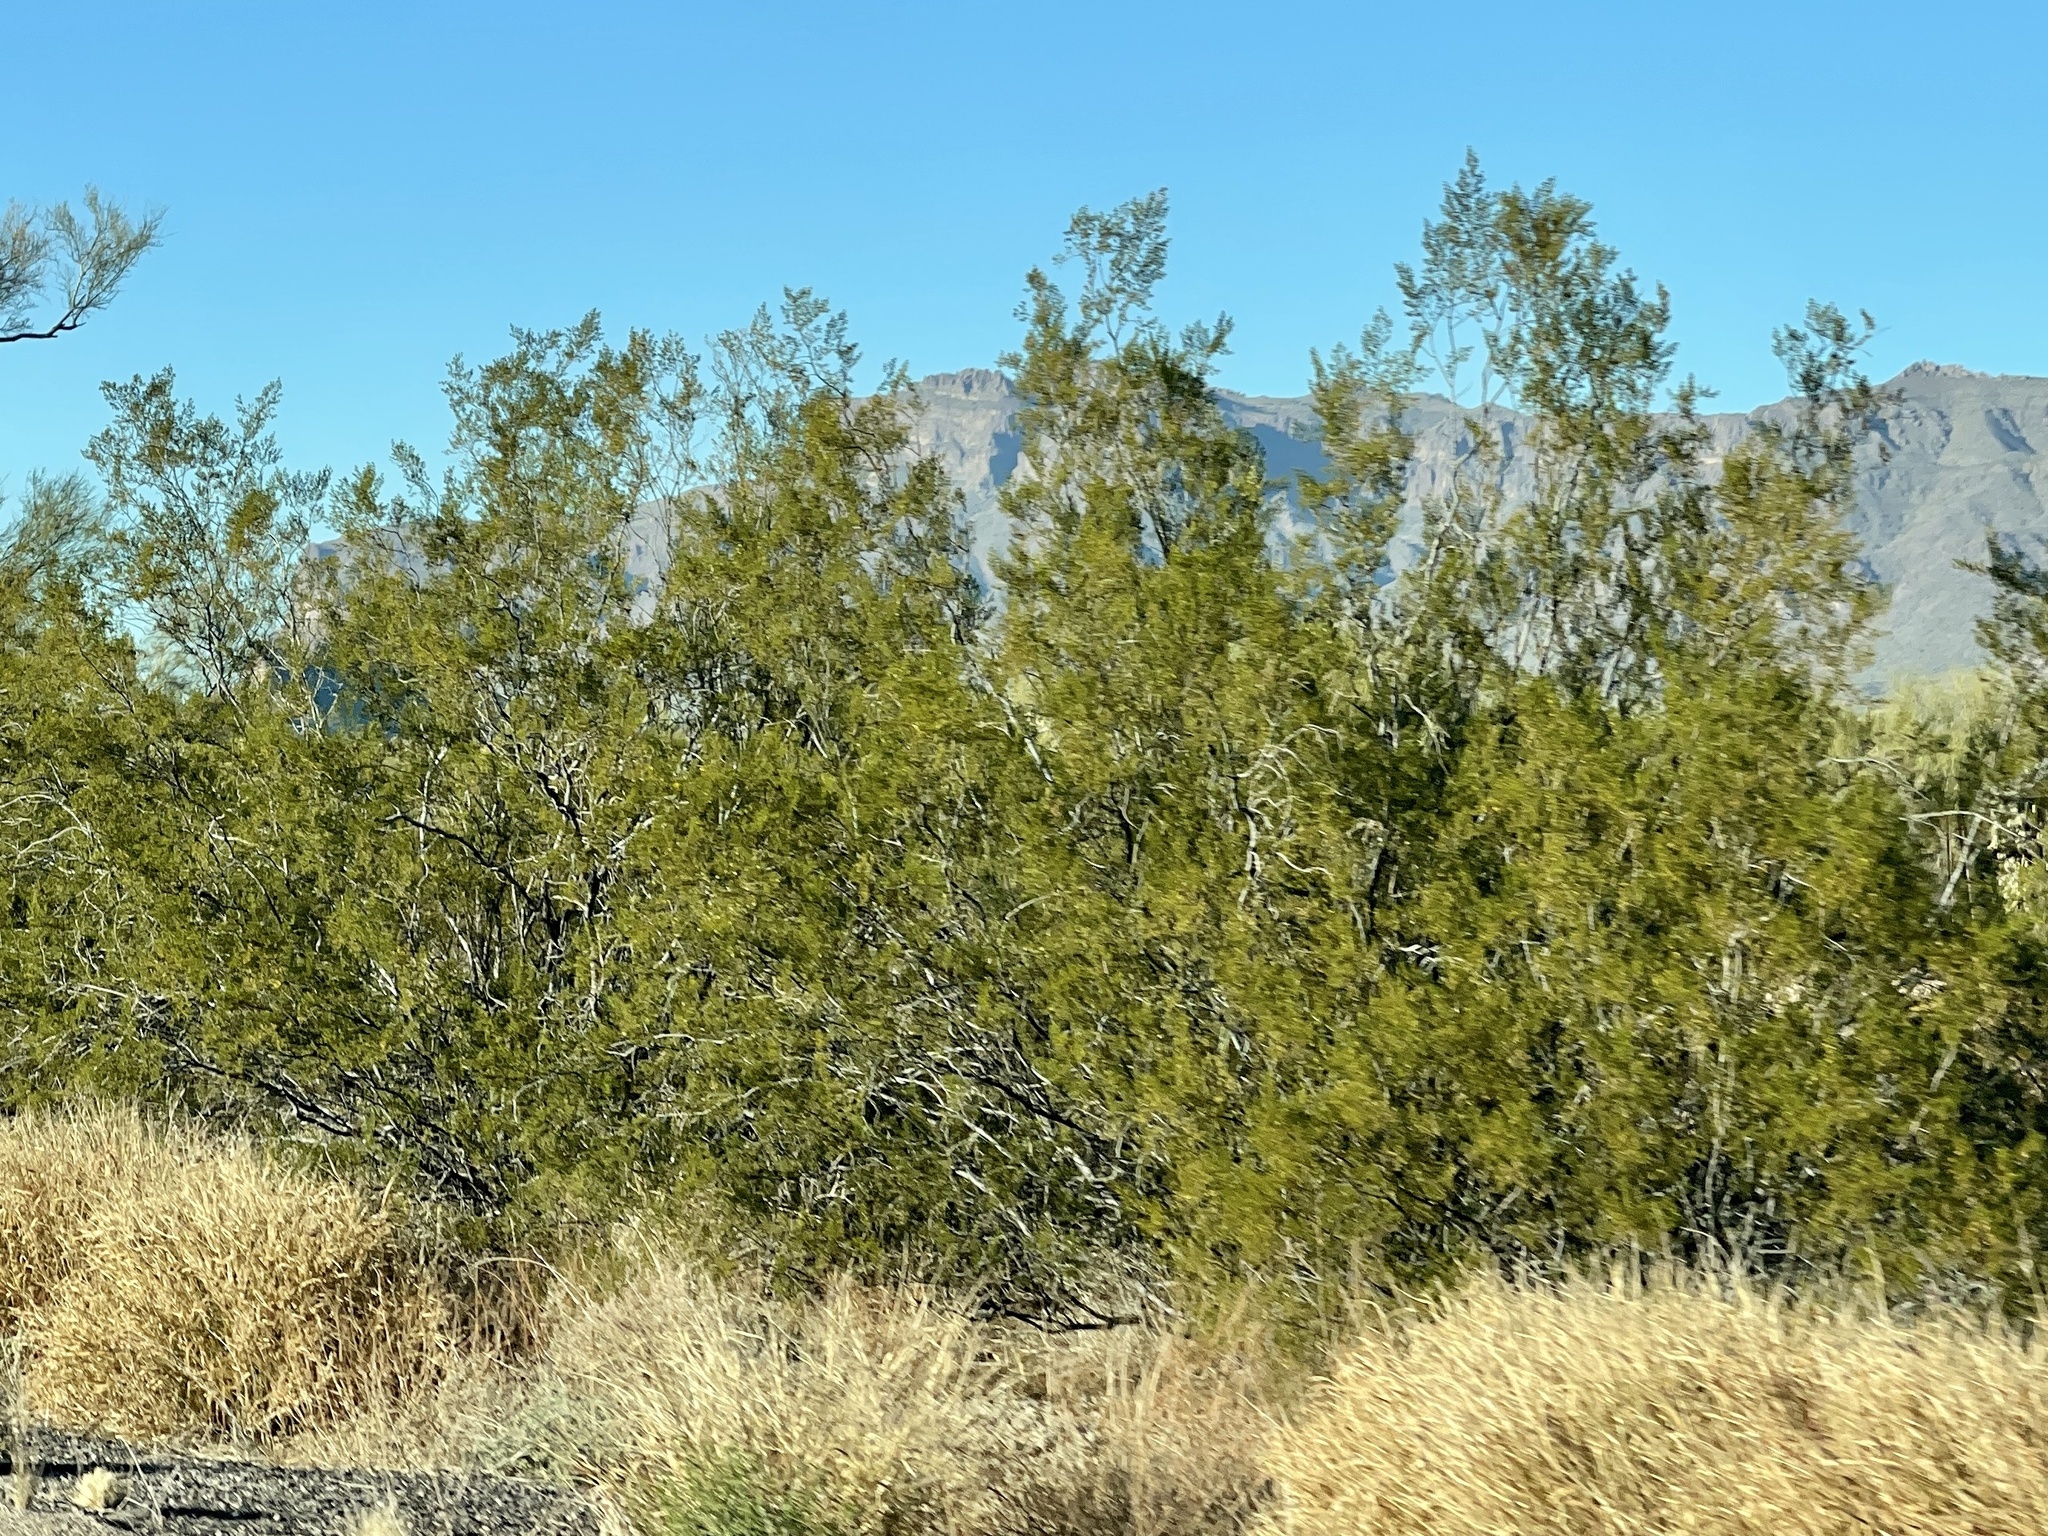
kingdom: Plantae
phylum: Tracheophyta
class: Magnoliopsida
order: Zygophyllales
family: Zygophyllaceae
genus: Larrea
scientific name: Larrea tridentata
